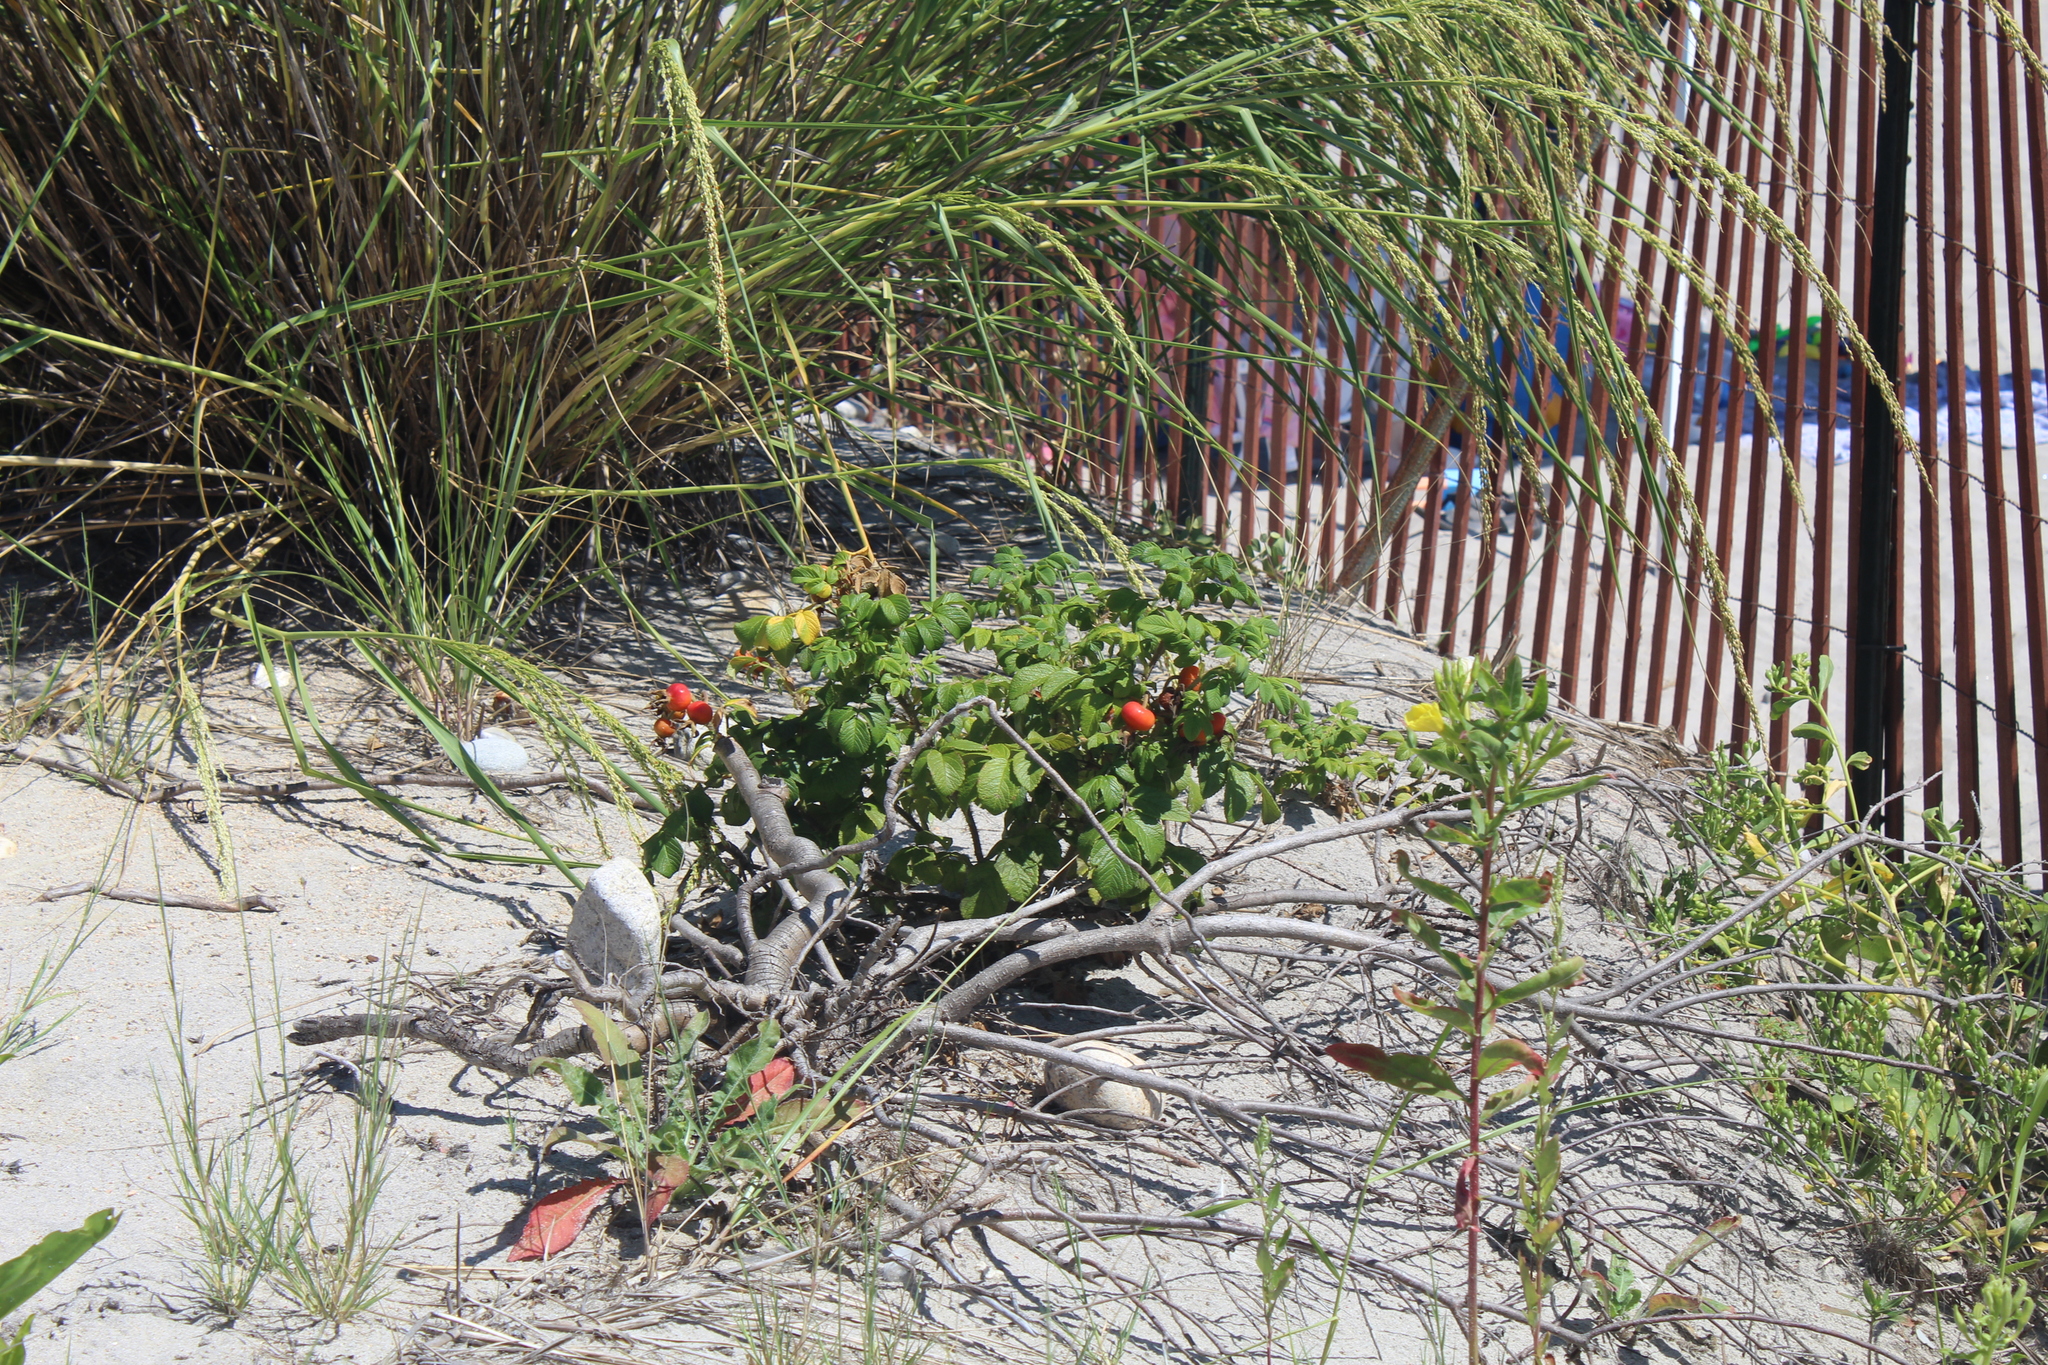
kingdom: Plantae
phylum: Tracheophyta
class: Magnoliopsida
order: Rosales
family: Rosaceae
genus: Rosa
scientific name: Rosa rugosa
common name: Japanese rose
